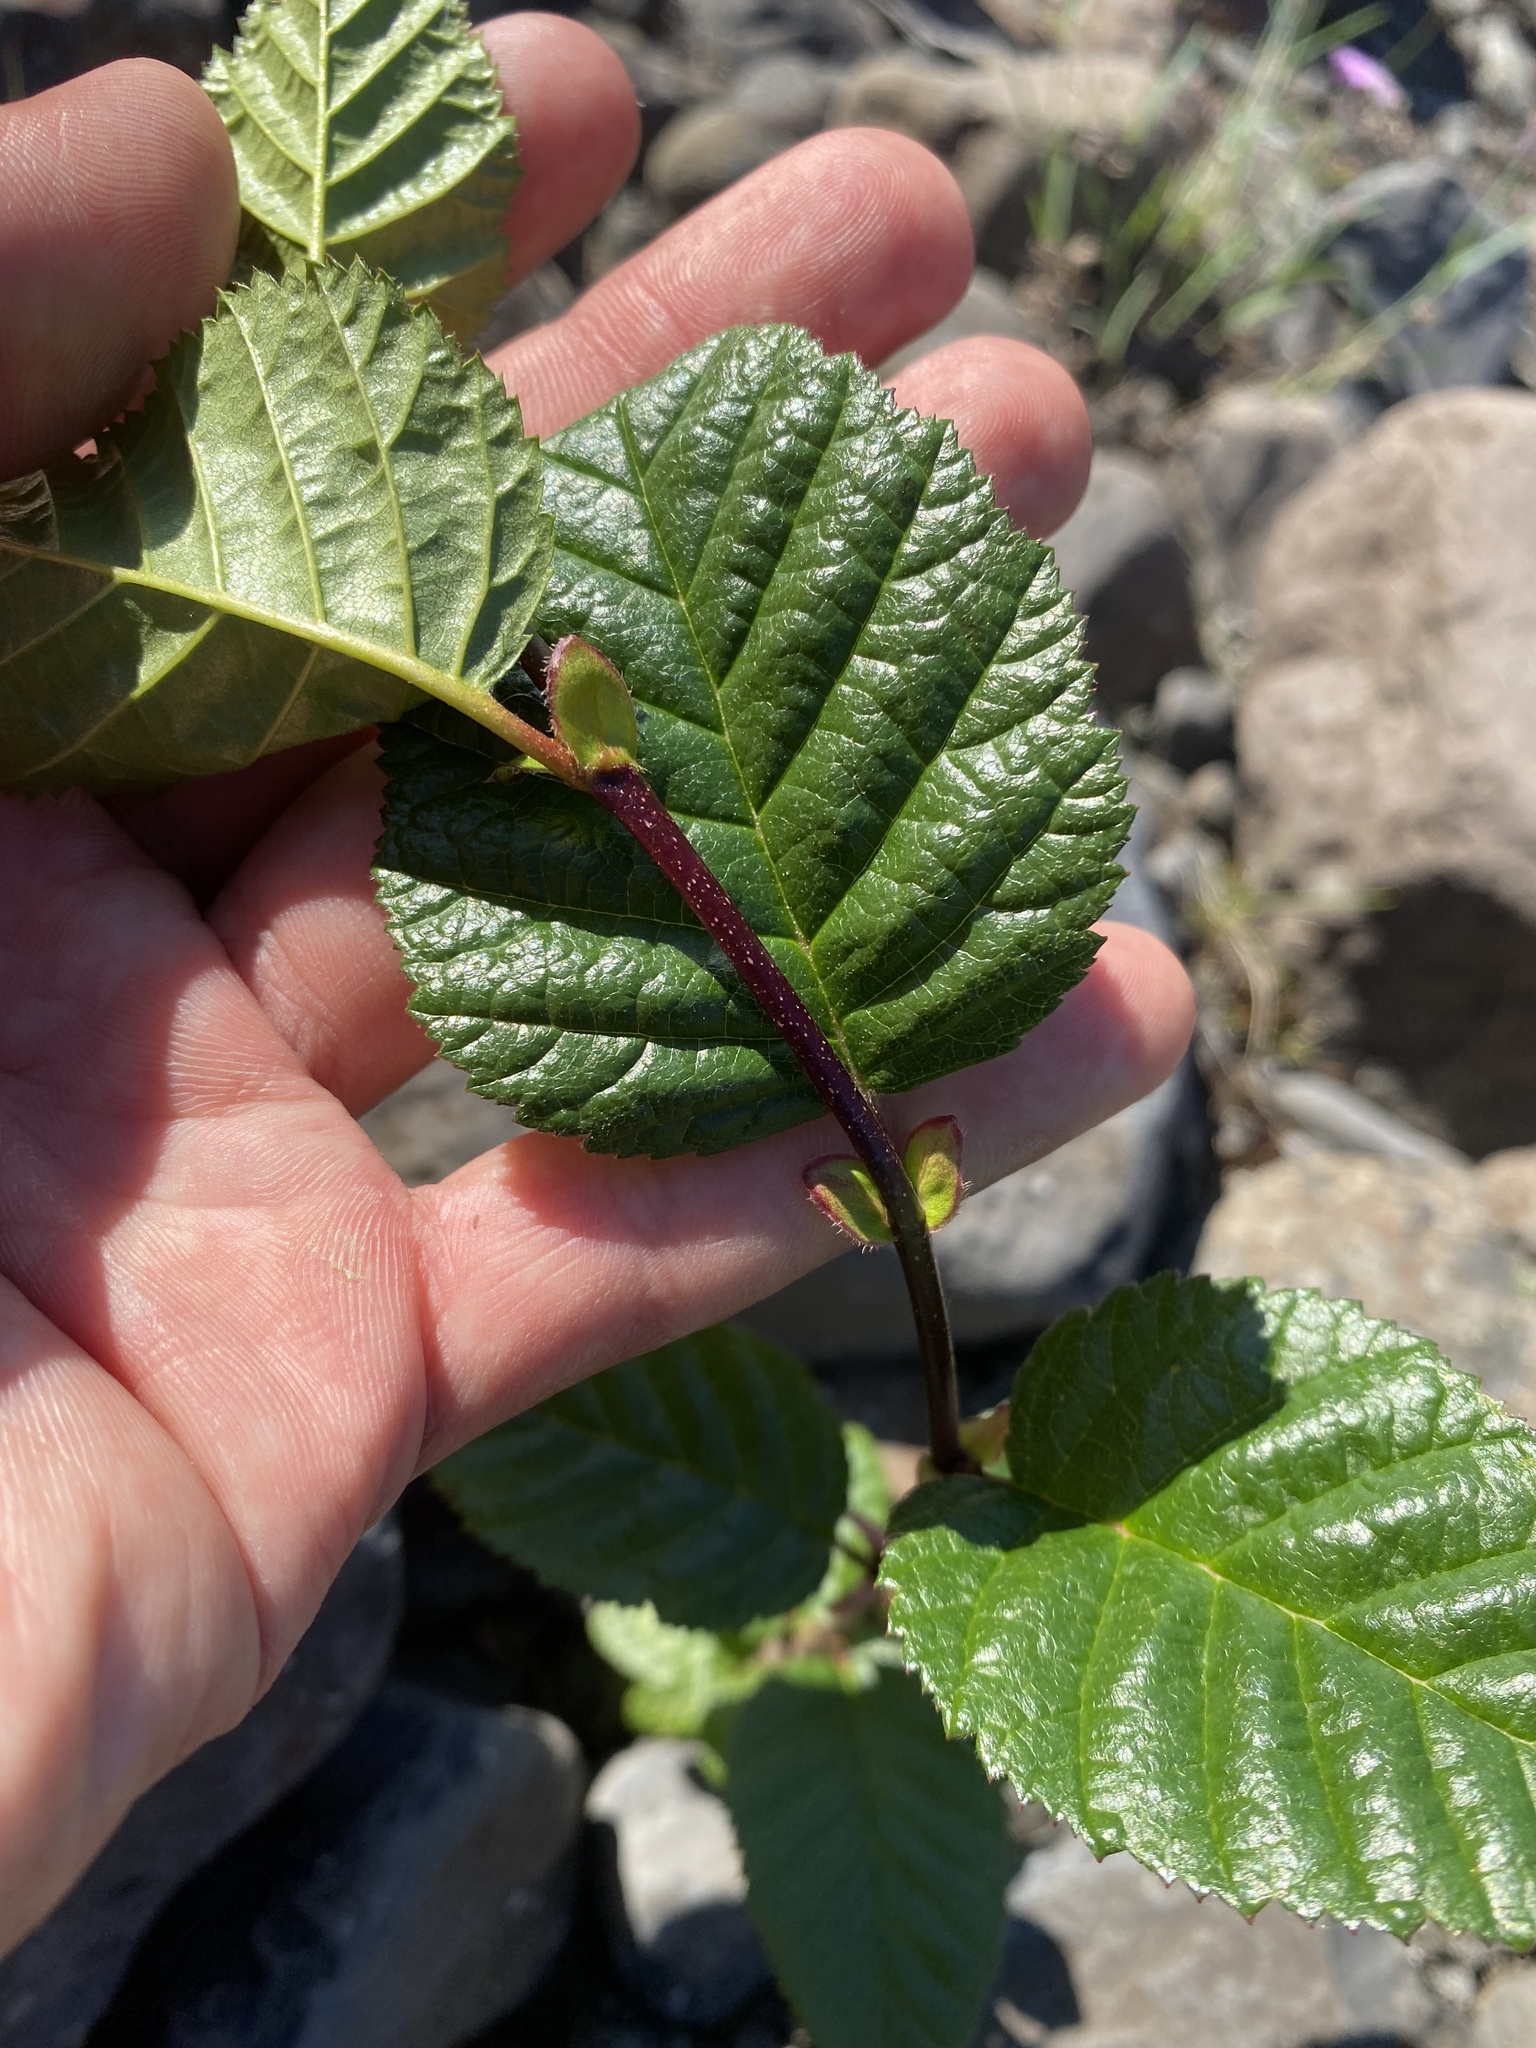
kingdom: Plantae
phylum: Tracheophyta
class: Magnoliopsida
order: Fagales
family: Betulaceae
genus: Alnus
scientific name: Alnus alnobetula
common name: Green alder
